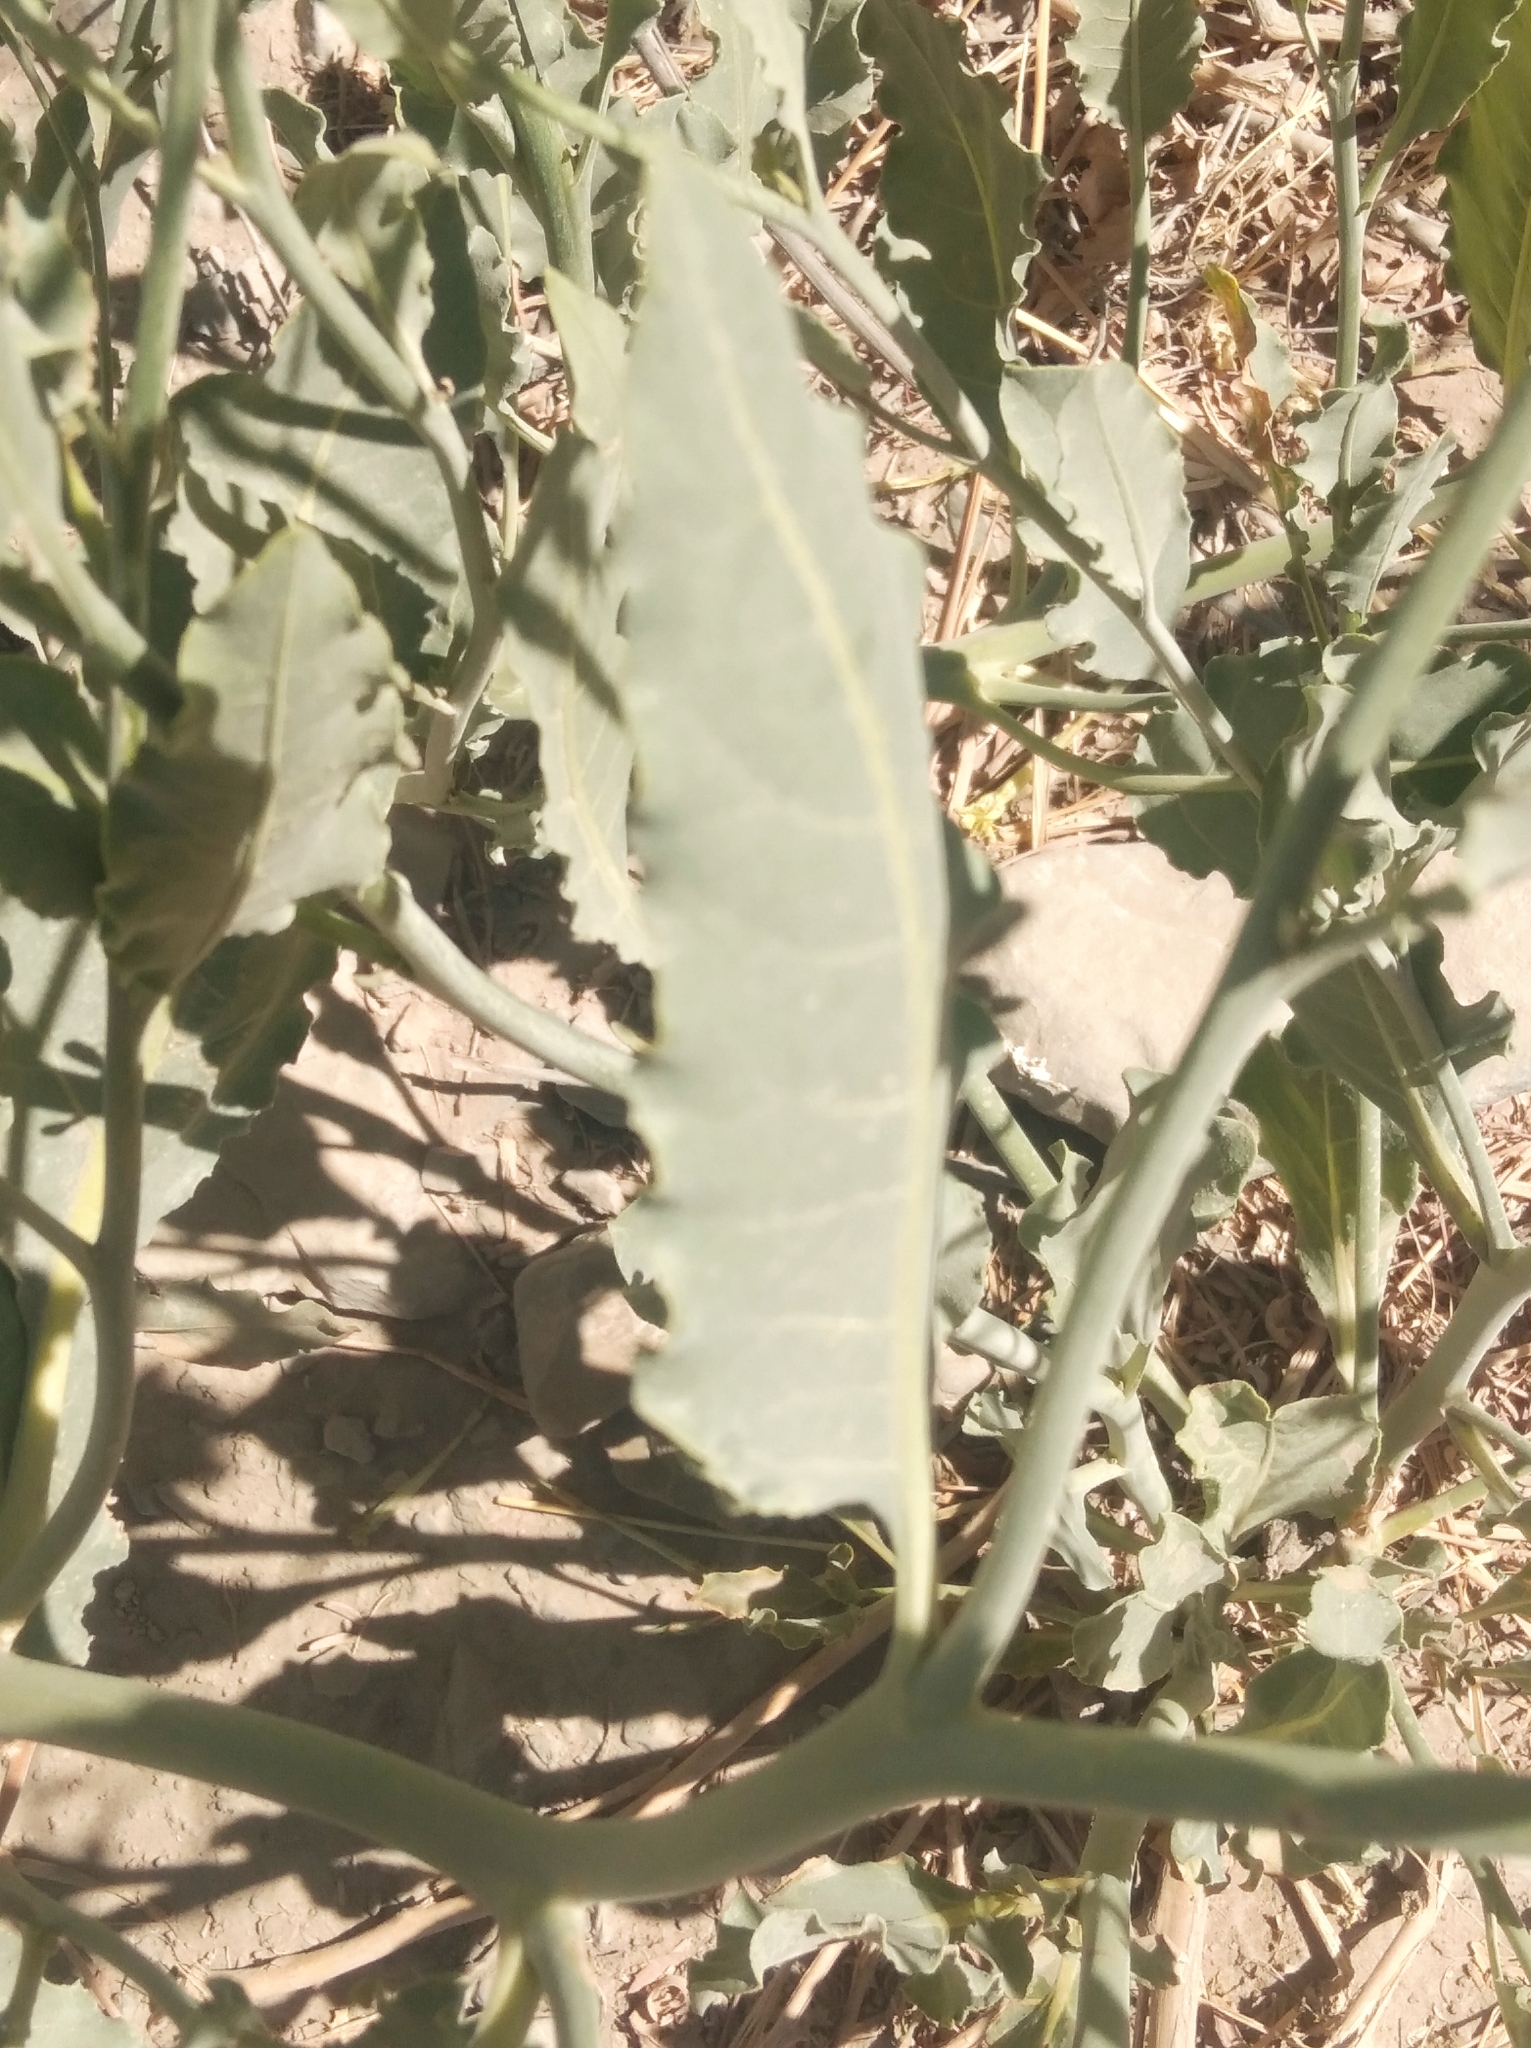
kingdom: Plantae
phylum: Tracheophyta
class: Magnoliopsida
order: Solanales
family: Solanaceae
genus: Nicotiana
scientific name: Nicotiana paa
